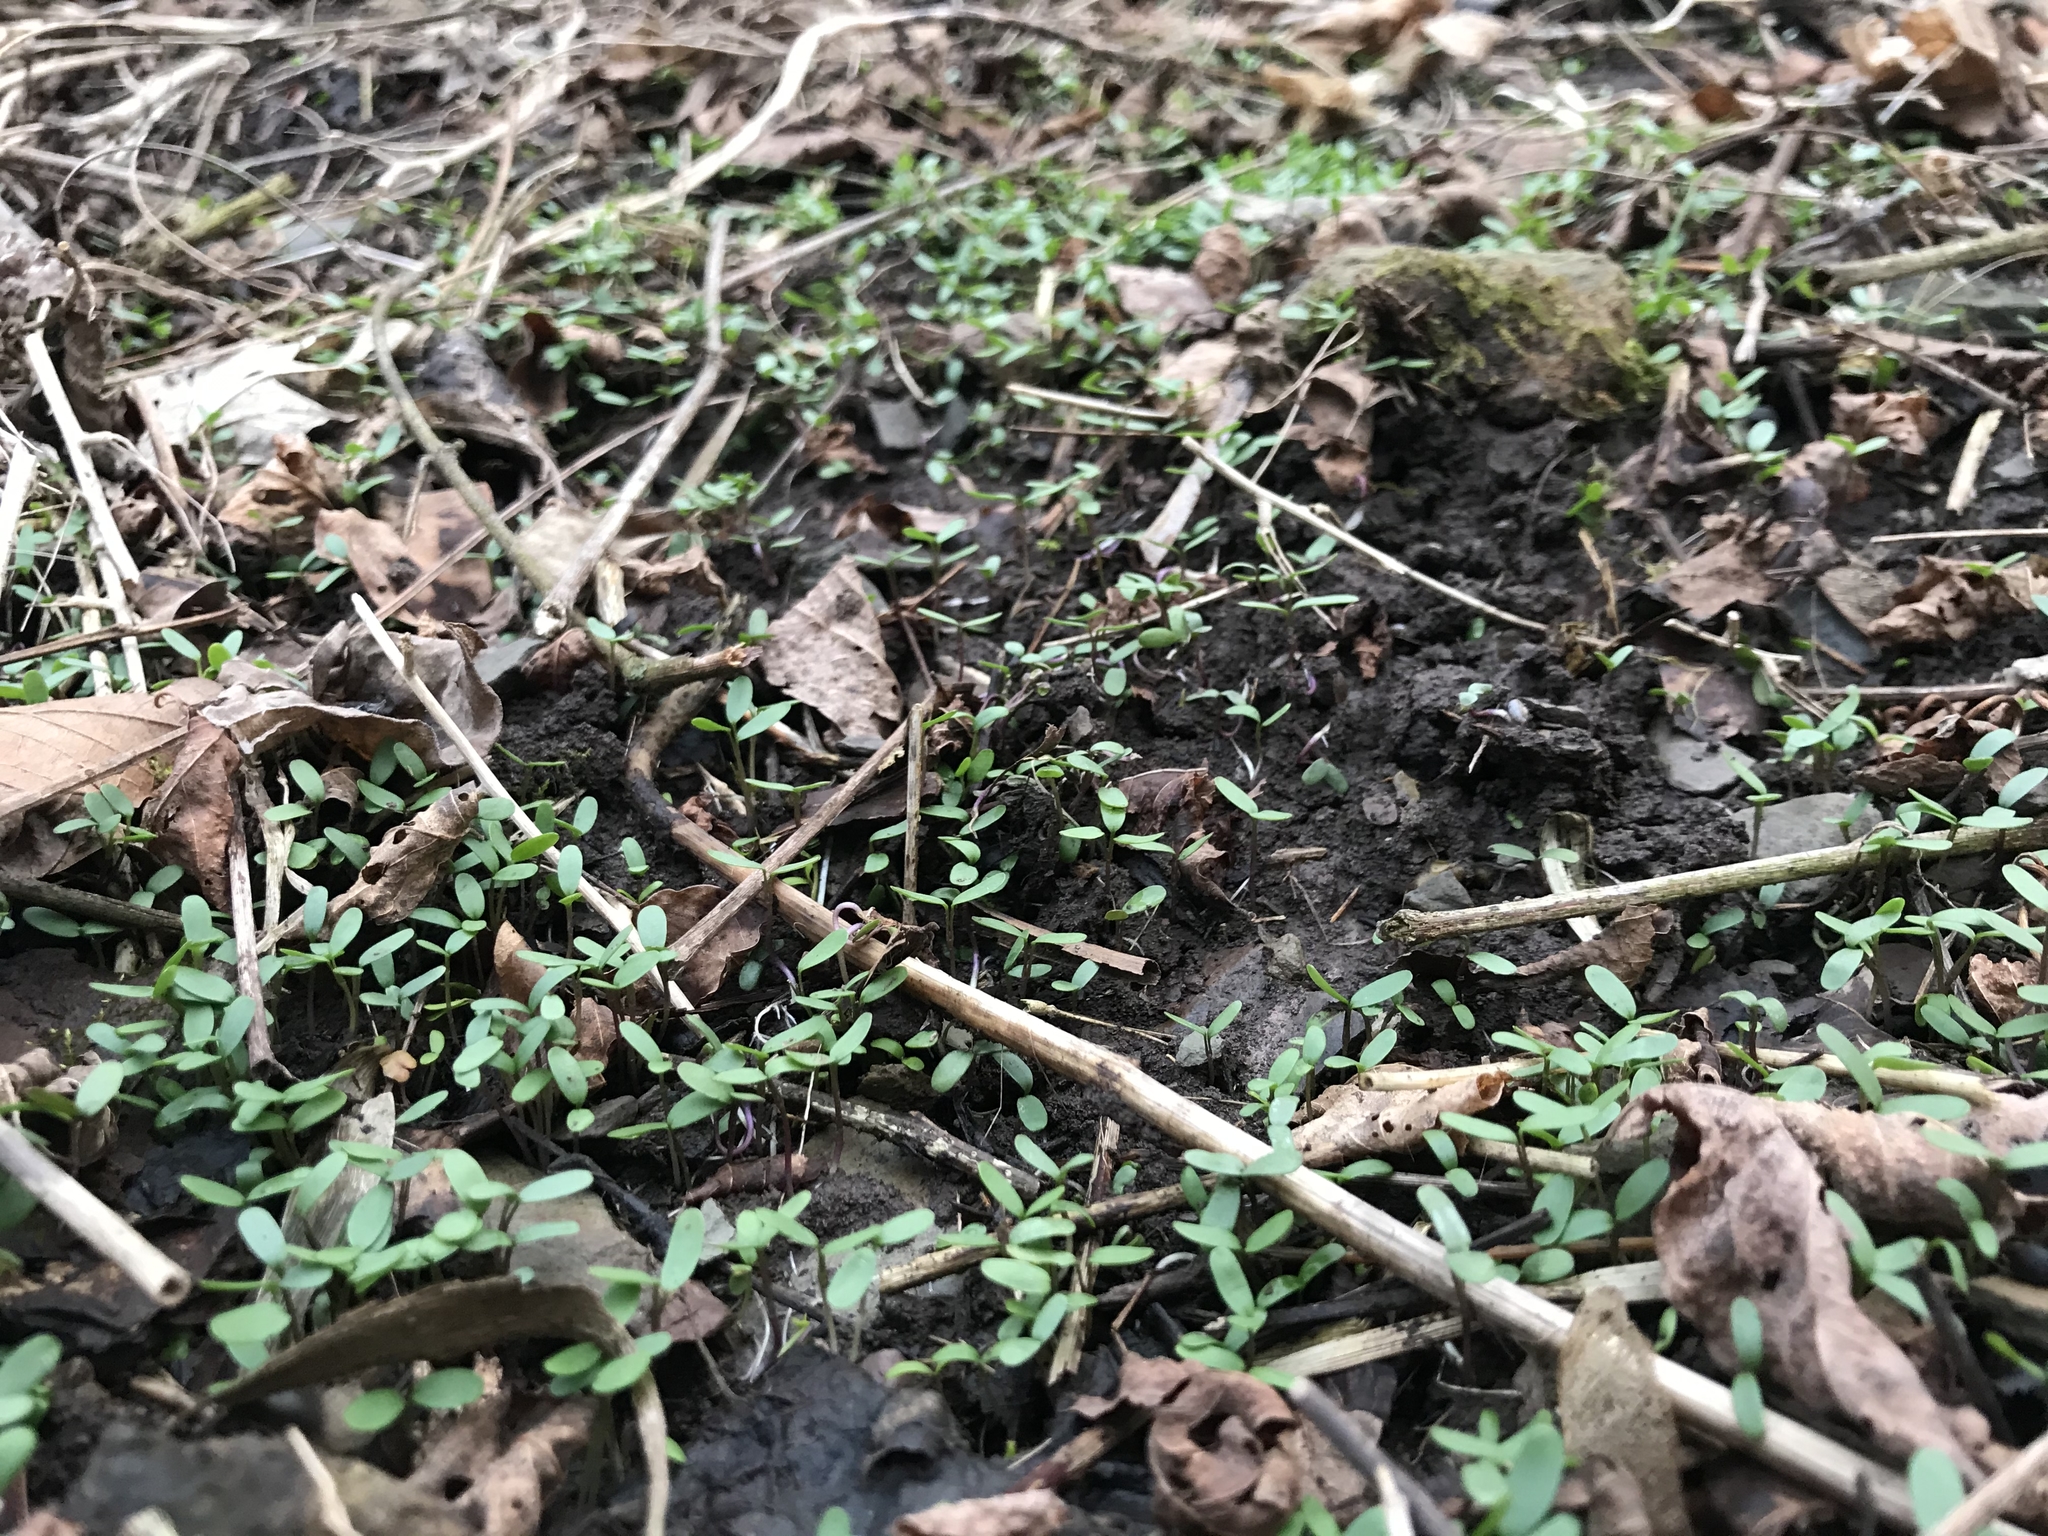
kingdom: Plantae
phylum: Tracheophyta
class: Magnoliopsida
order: Brassicales
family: Brassicaceae
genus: Alliaria
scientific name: Alliaria petiolata
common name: Garlic mustard
